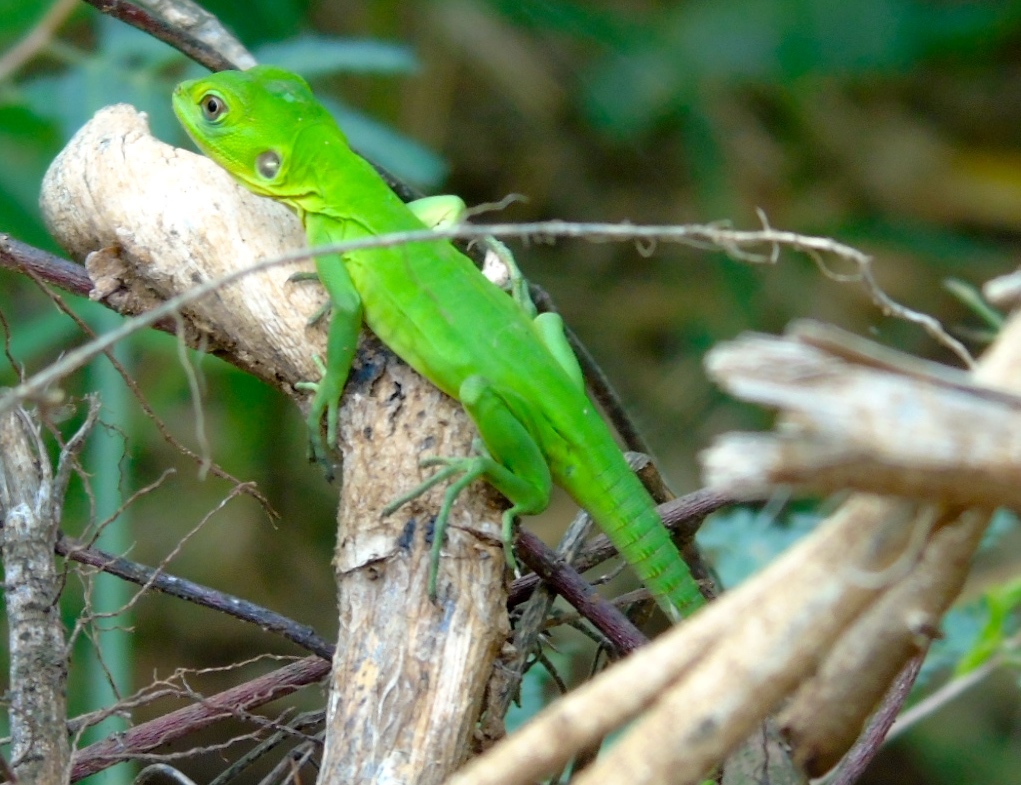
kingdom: Animalia
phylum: Chordata
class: Squamata
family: Iguanidae
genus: Ctenosaura
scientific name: Ctenosaura pectinata
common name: Guerreran spiny-tailed iguana
